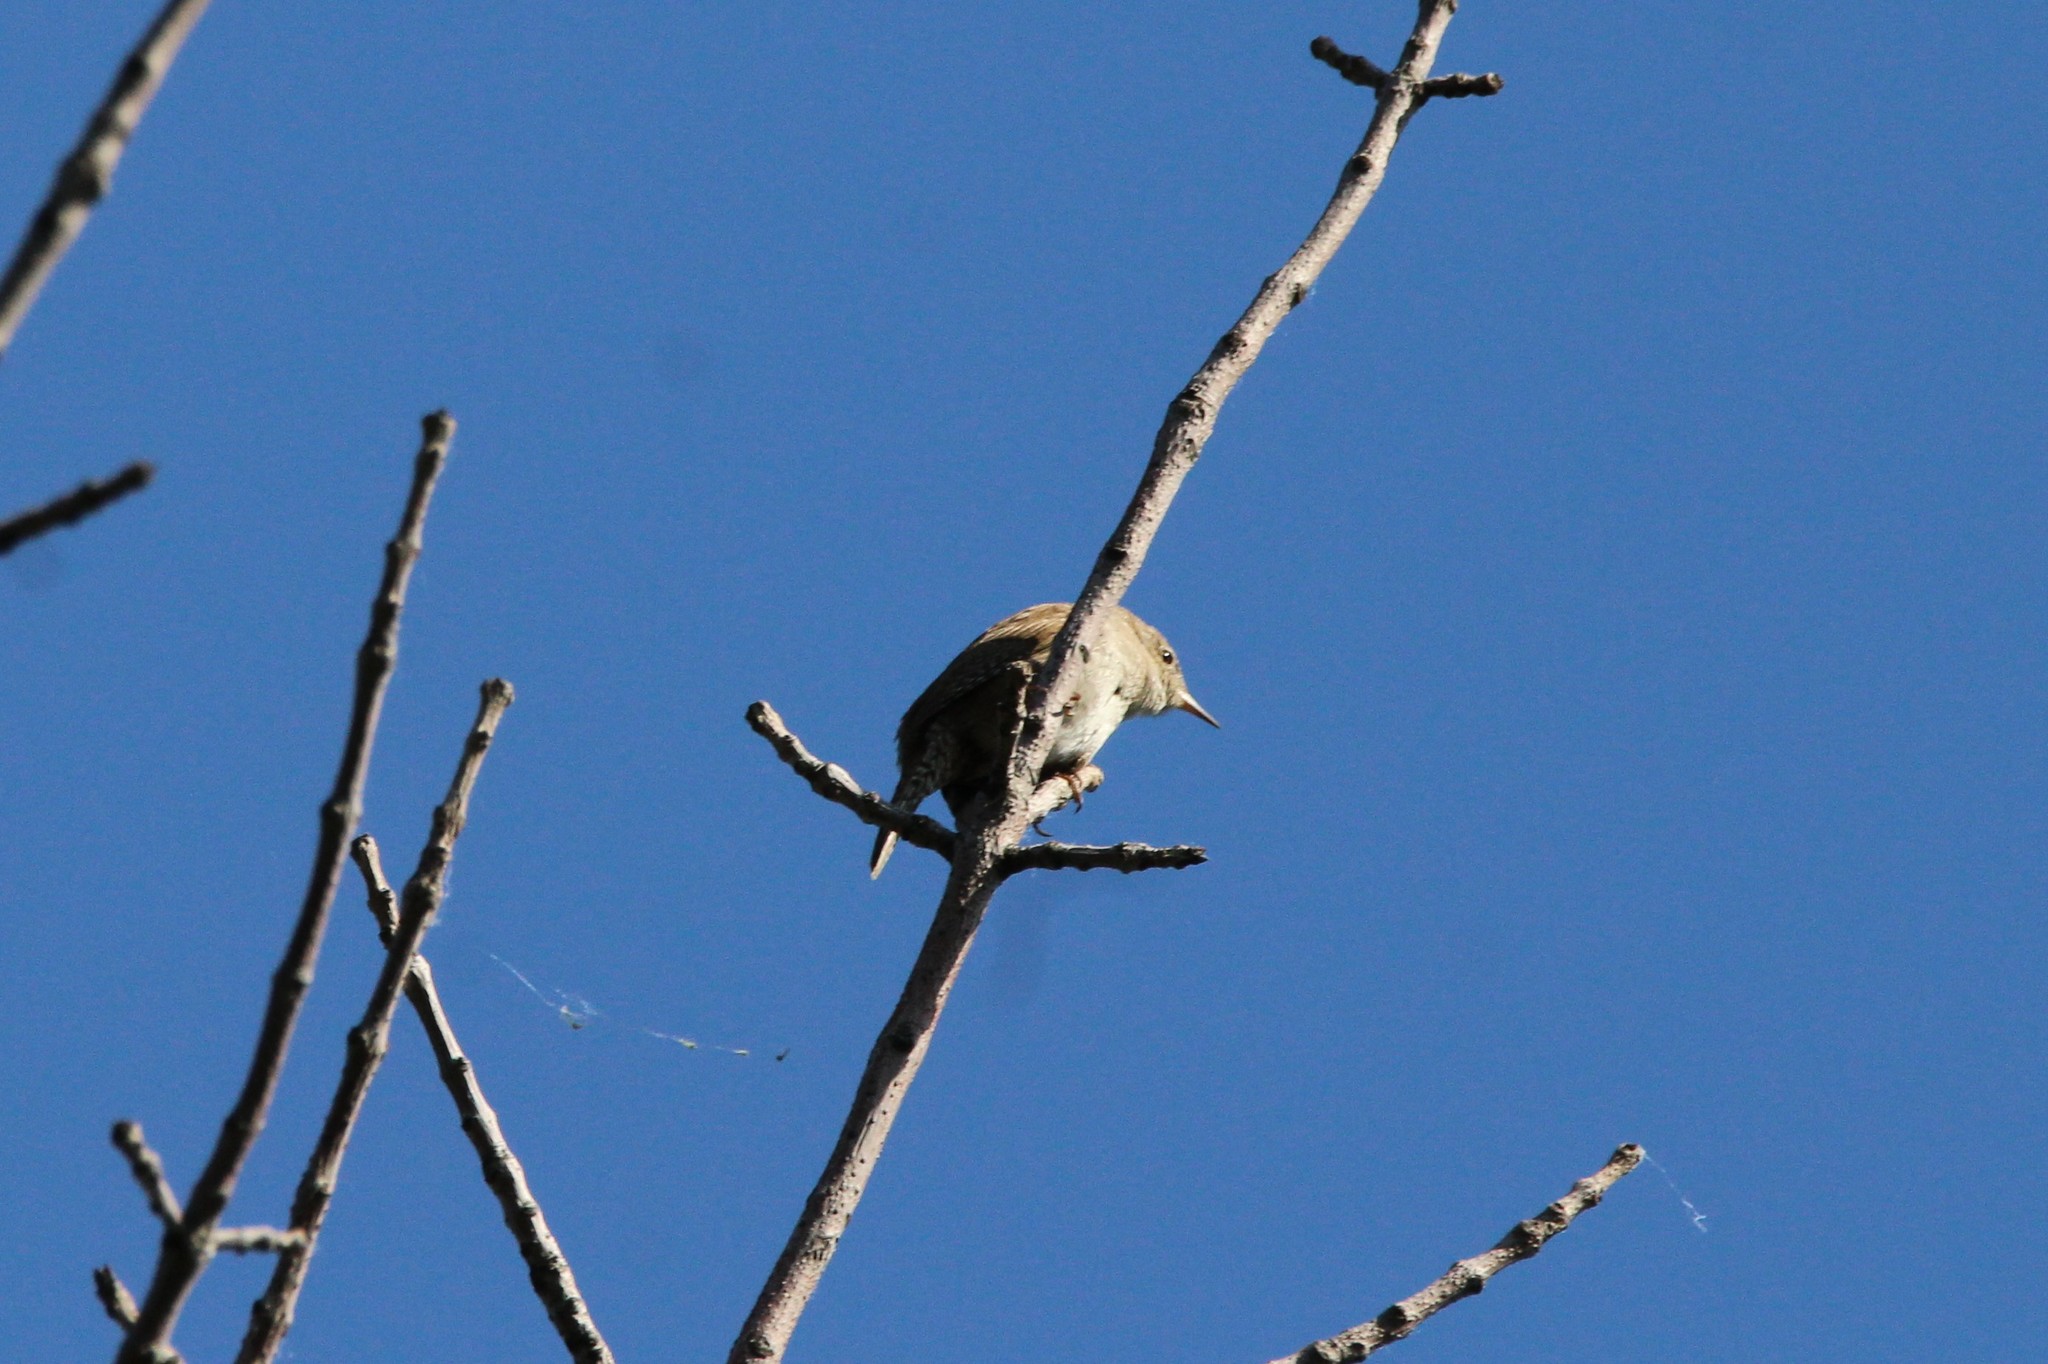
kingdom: Animalia
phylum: Chordata
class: Aves
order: Passeriformes
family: Troglodytidae
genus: Troglodytes
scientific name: Troglodytes aedon
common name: House wren
